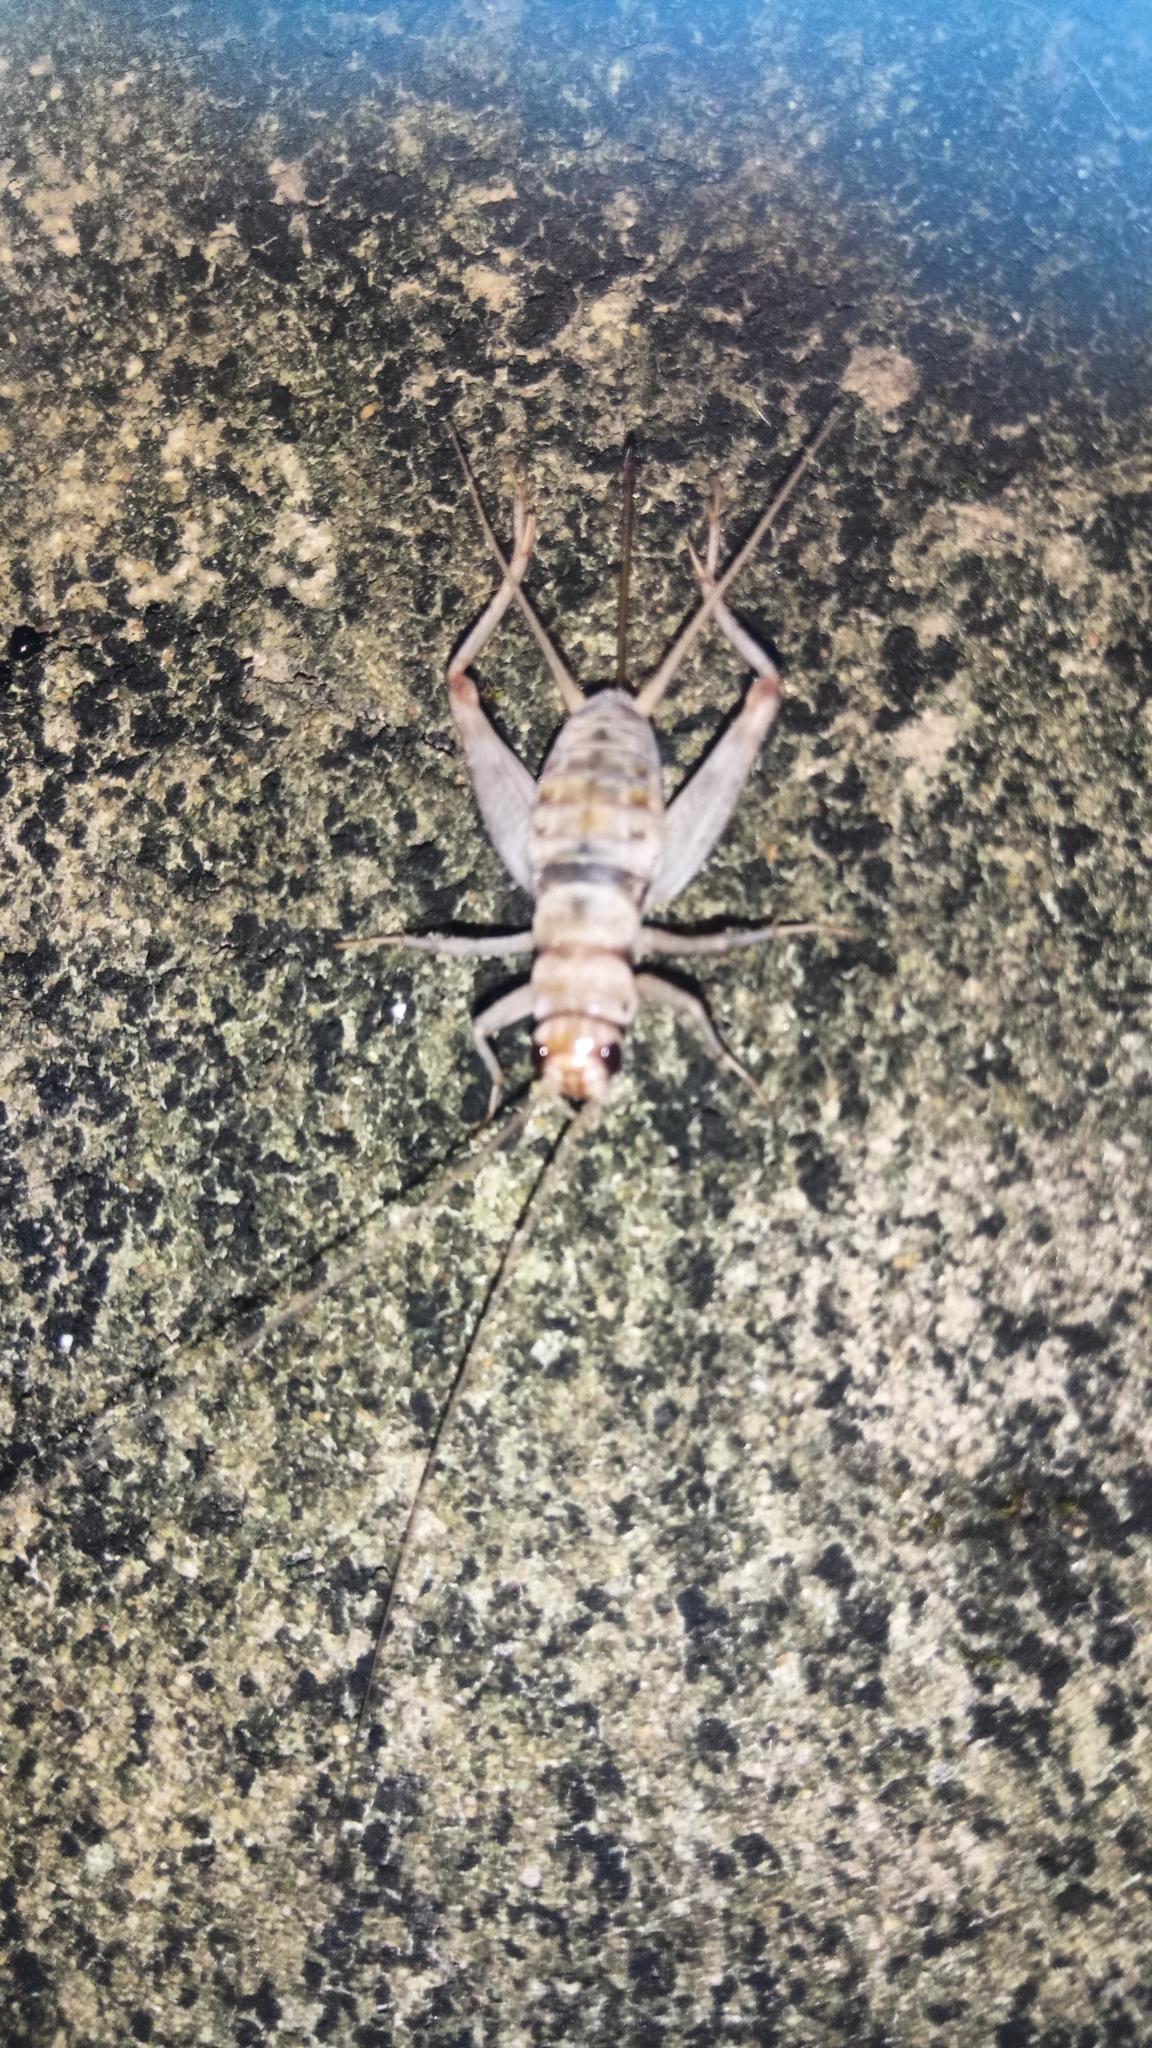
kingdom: Animalia
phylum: Arthropoda
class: Insecta
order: Orthoptera
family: Gryllidae
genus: Gryllodes
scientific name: Gryllodes sigillatus
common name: Tropical house cricket
